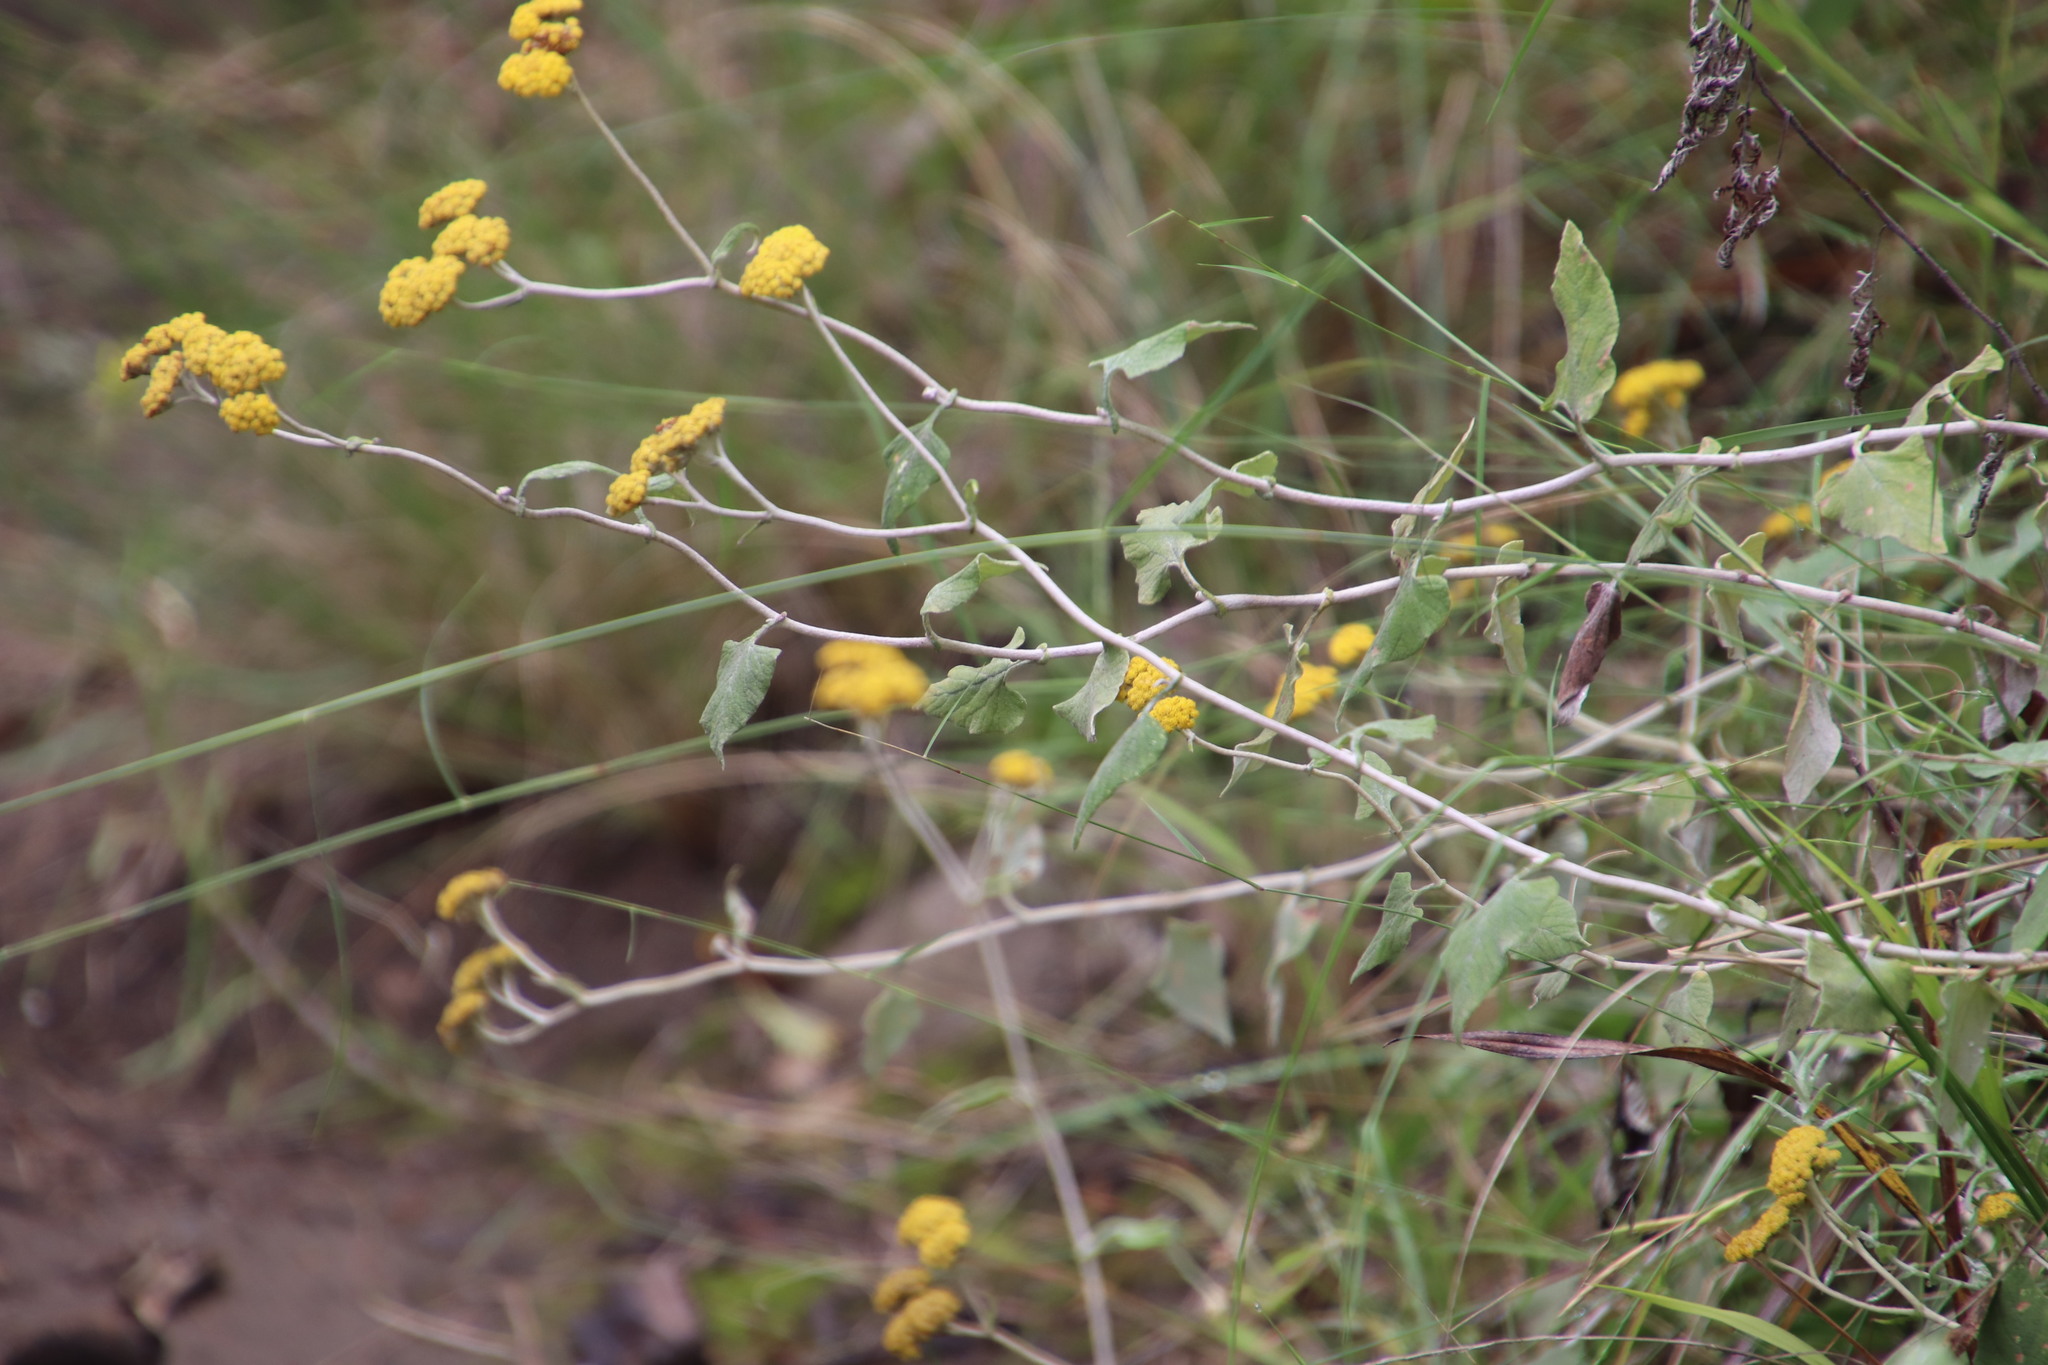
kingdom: Plantae
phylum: Tracheophyta
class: Magnoliopsida
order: Asterales
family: Asteraceae
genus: Helichrysum
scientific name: Helichrysum hypoleucum
